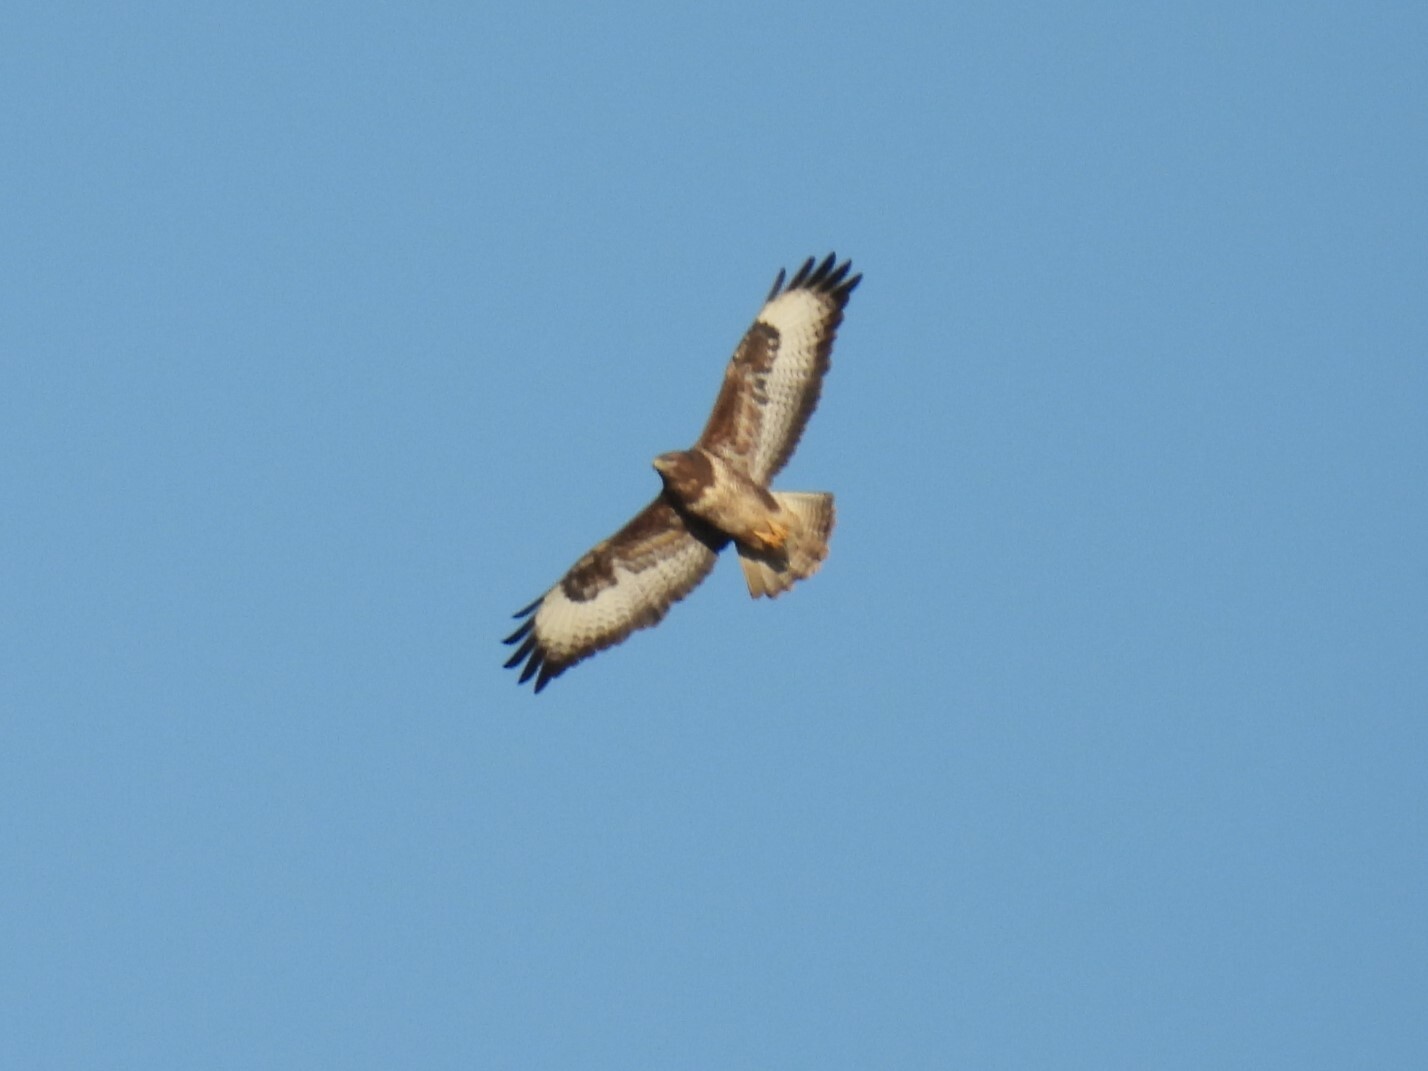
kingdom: Animalia
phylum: Chordata
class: Aves
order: Accipitriformes
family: Accipitridae
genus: Buteo
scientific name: Buteo buteo
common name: Common buzzard
